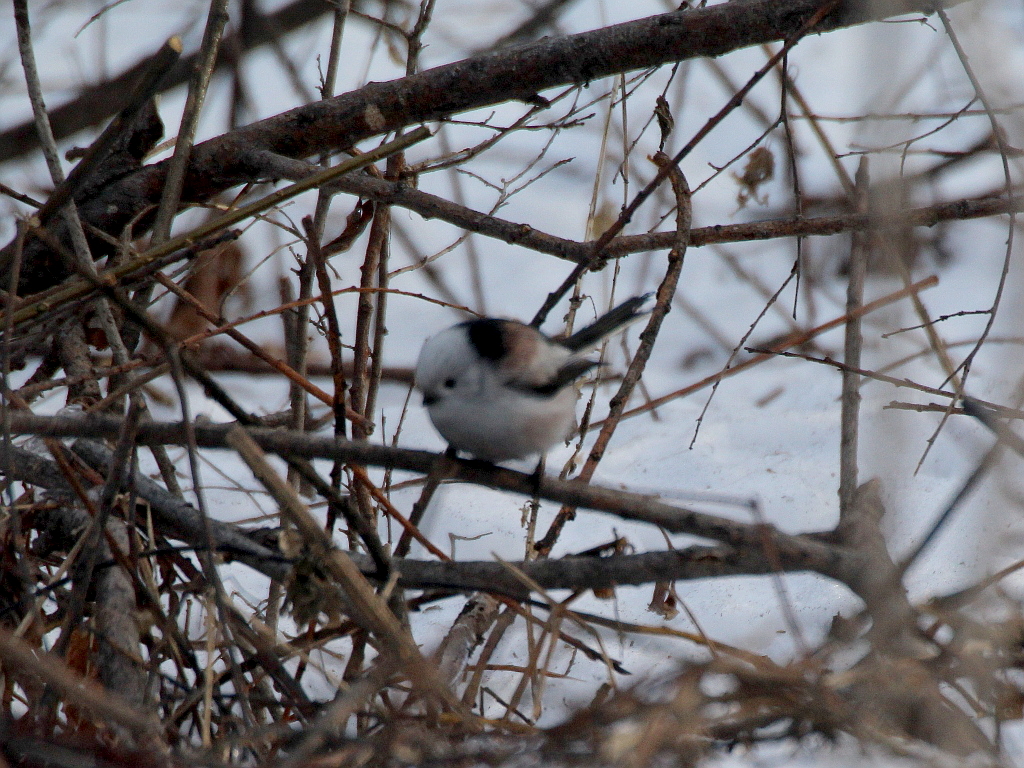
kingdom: Animalia
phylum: Chordata
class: Aves
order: Passeriformes
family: Aegithalidae
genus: Aegithalos
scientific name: Aegithalos caudatus
